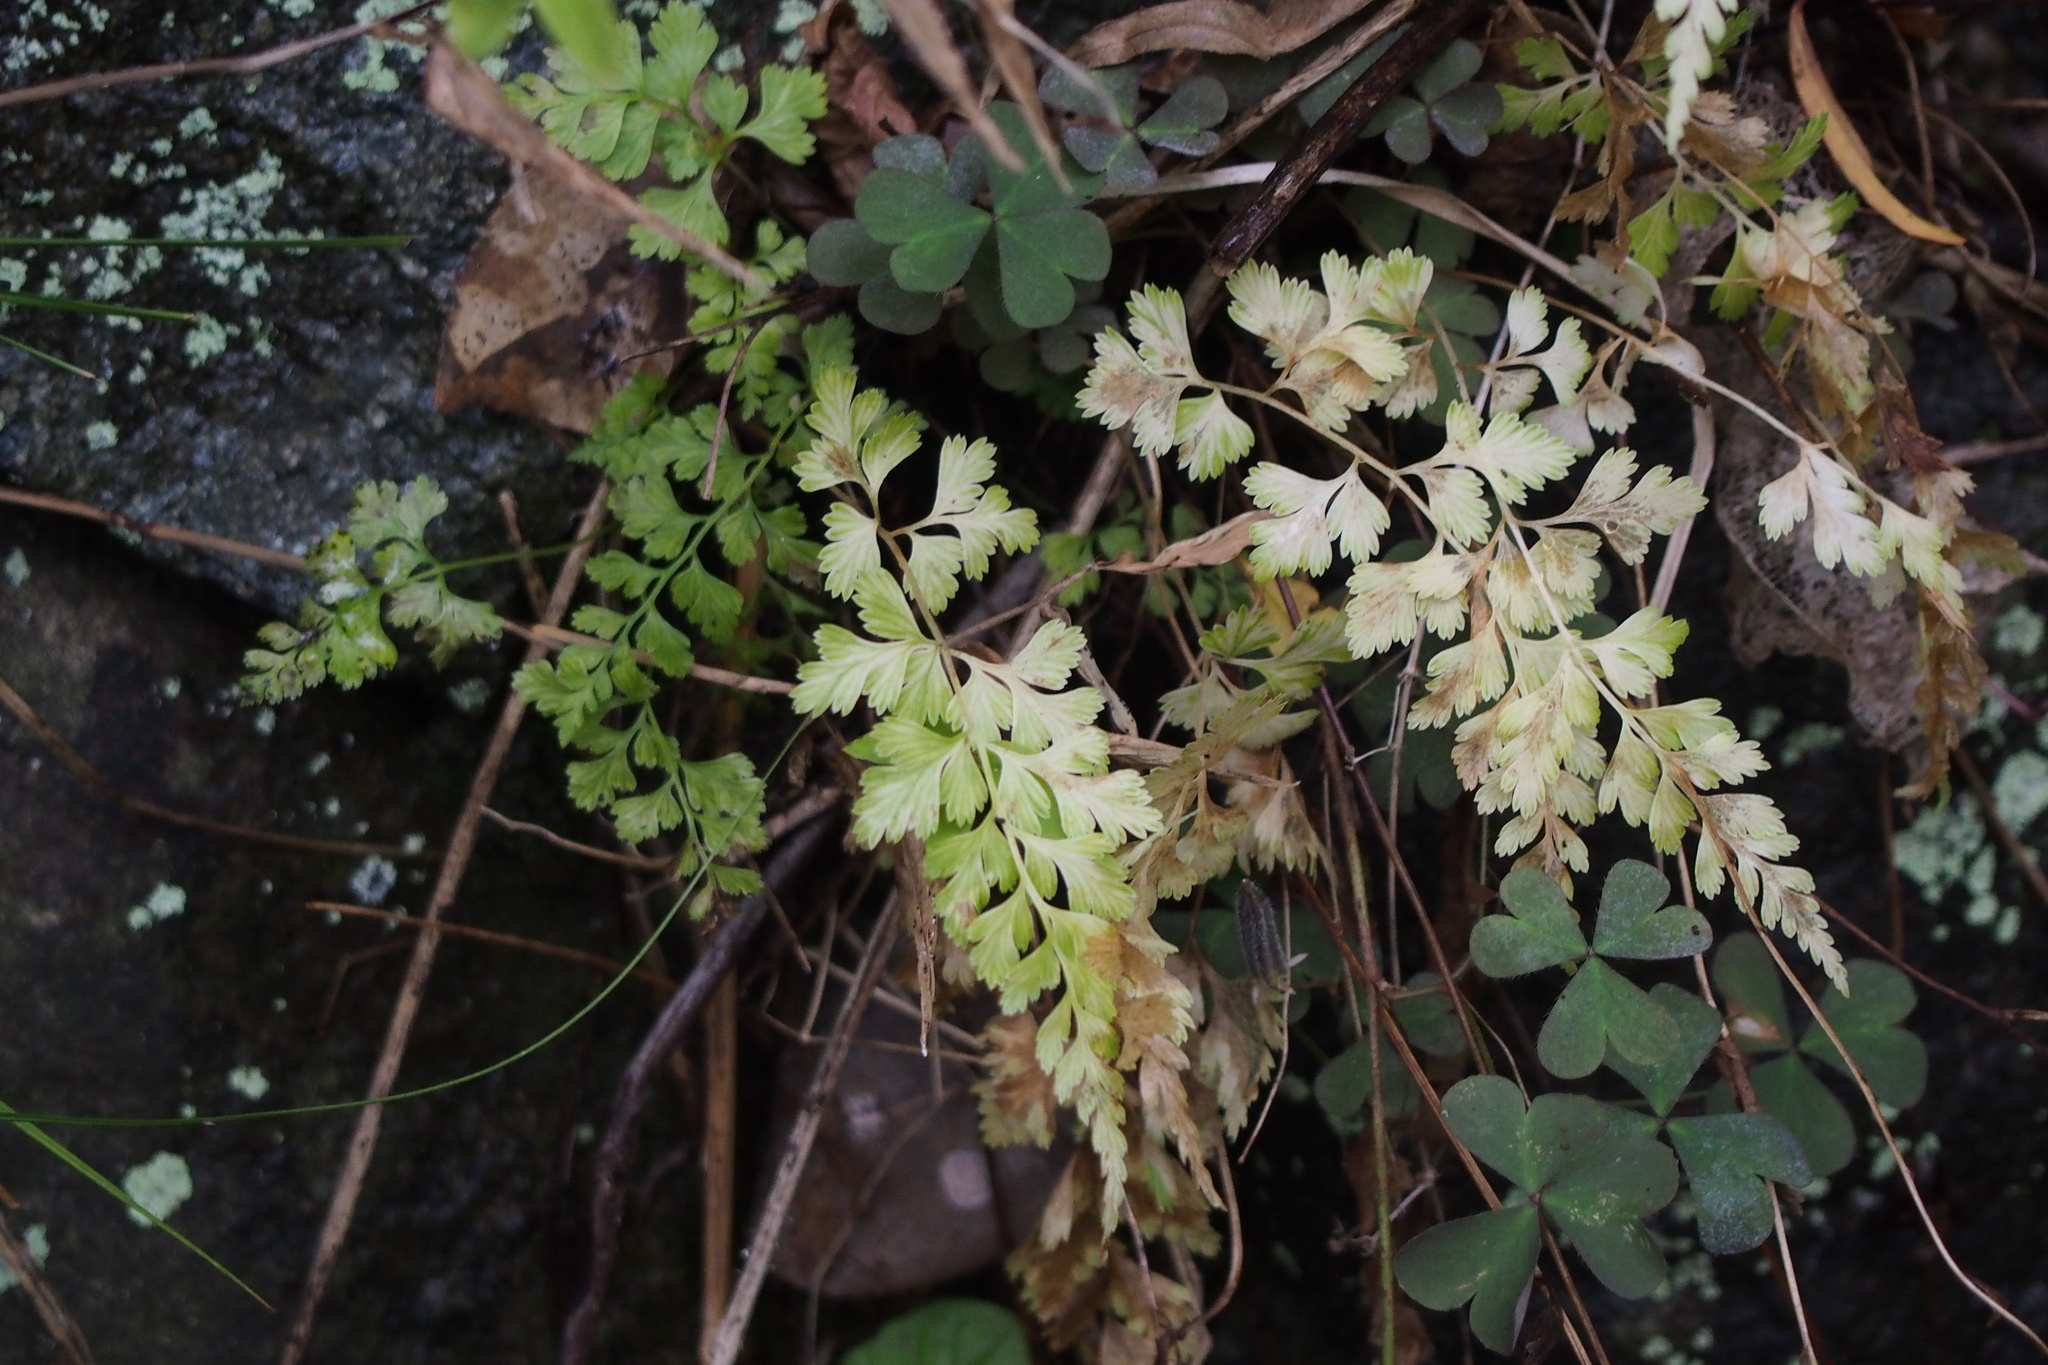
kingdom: Plantae
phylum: Tracheophyta
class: Polypodiopsida
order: Polypodiales
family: Aspleniaceae
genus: Asplenium
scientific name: Asplenium laciniatum
